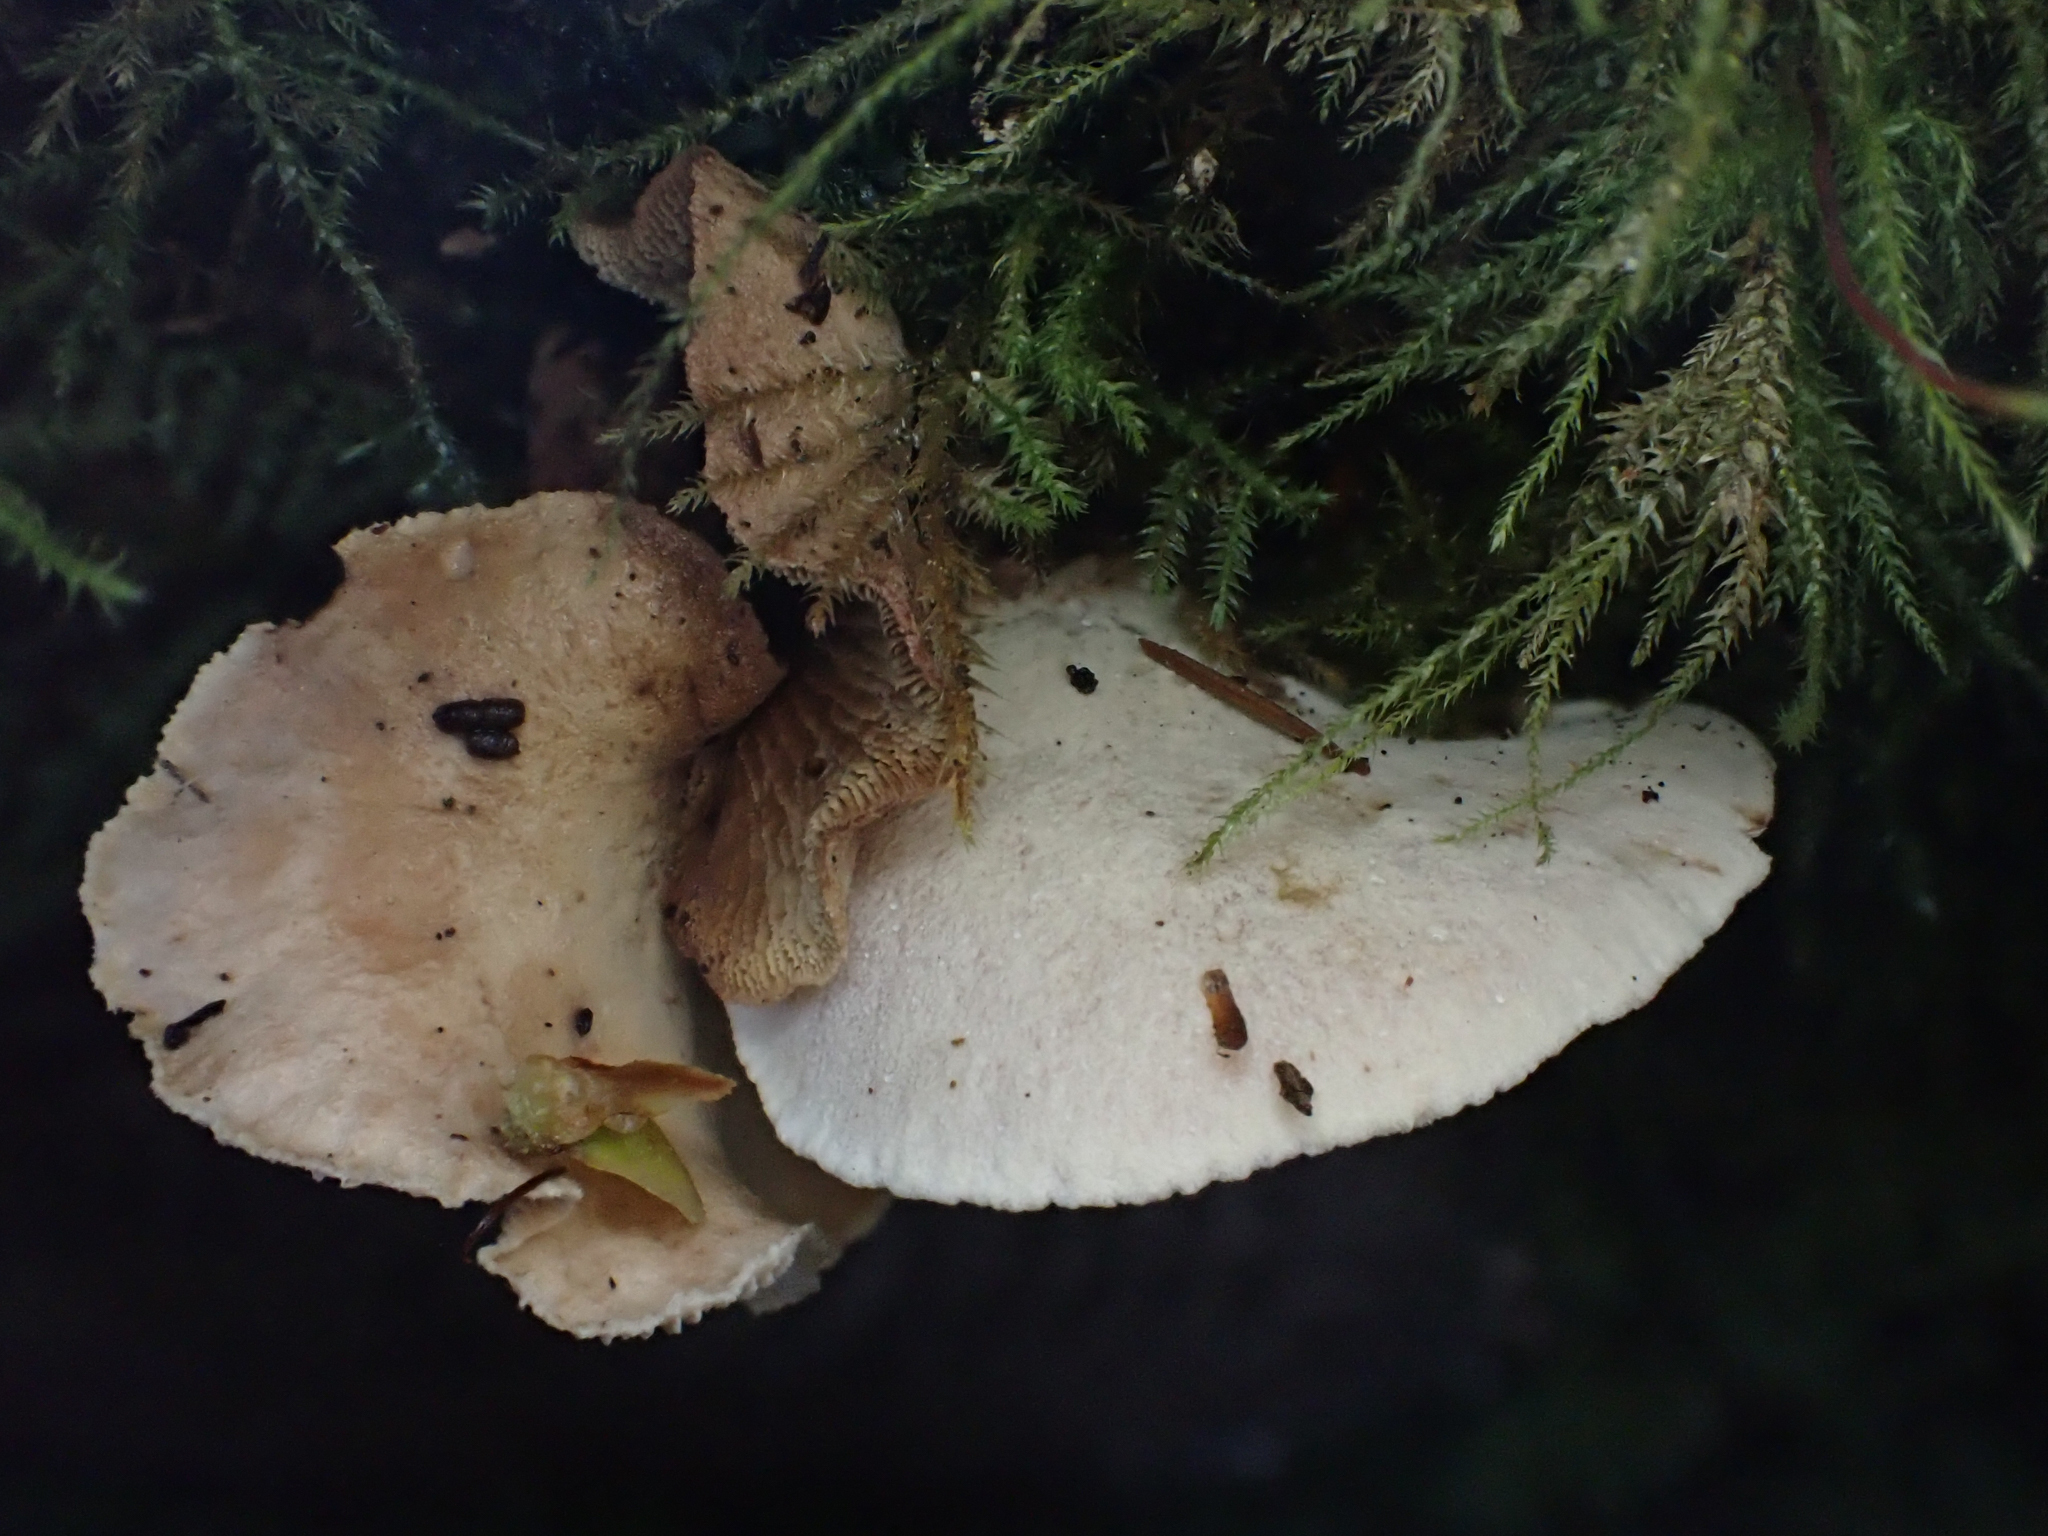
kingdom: Fungi
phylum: Basidiomycota
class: Agaricomycetes
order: Gloeophyllales
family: Gloeophyllaceae
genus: Neolentinus
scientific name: Neolentinus kauffmanii
